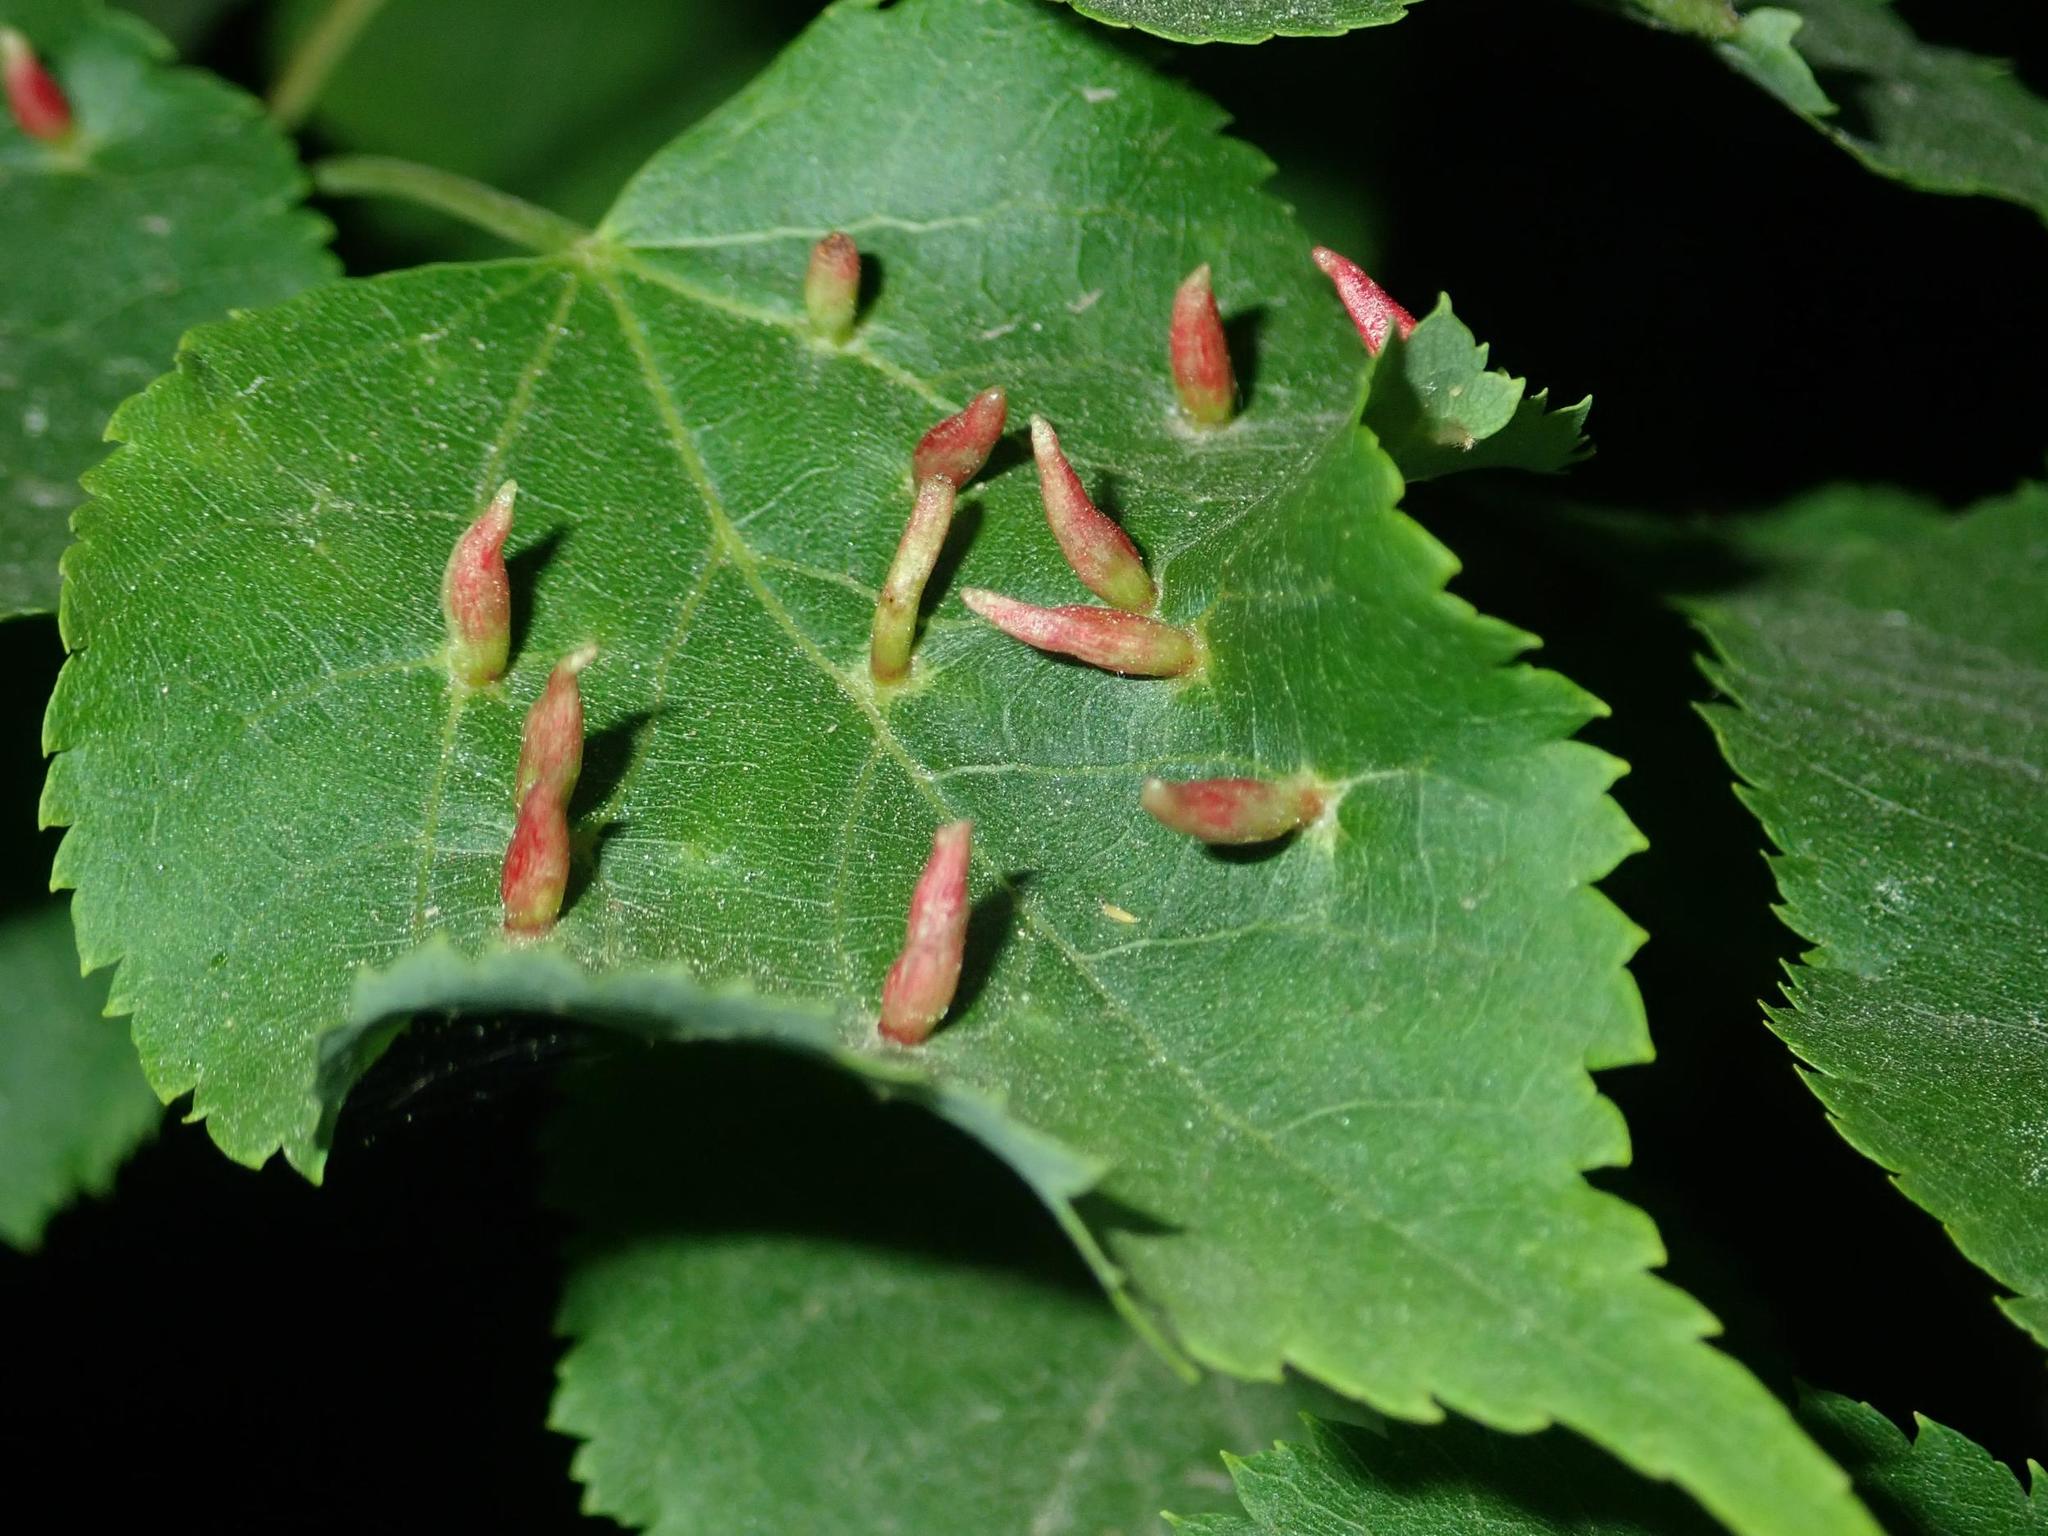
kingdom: Animalia
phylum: Arthropoda
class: Arachnida
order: Trombidiformes
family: Eriophyidae
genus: Eriophyes
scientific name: Eriophyes tiliae
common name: Red nail gall mite
